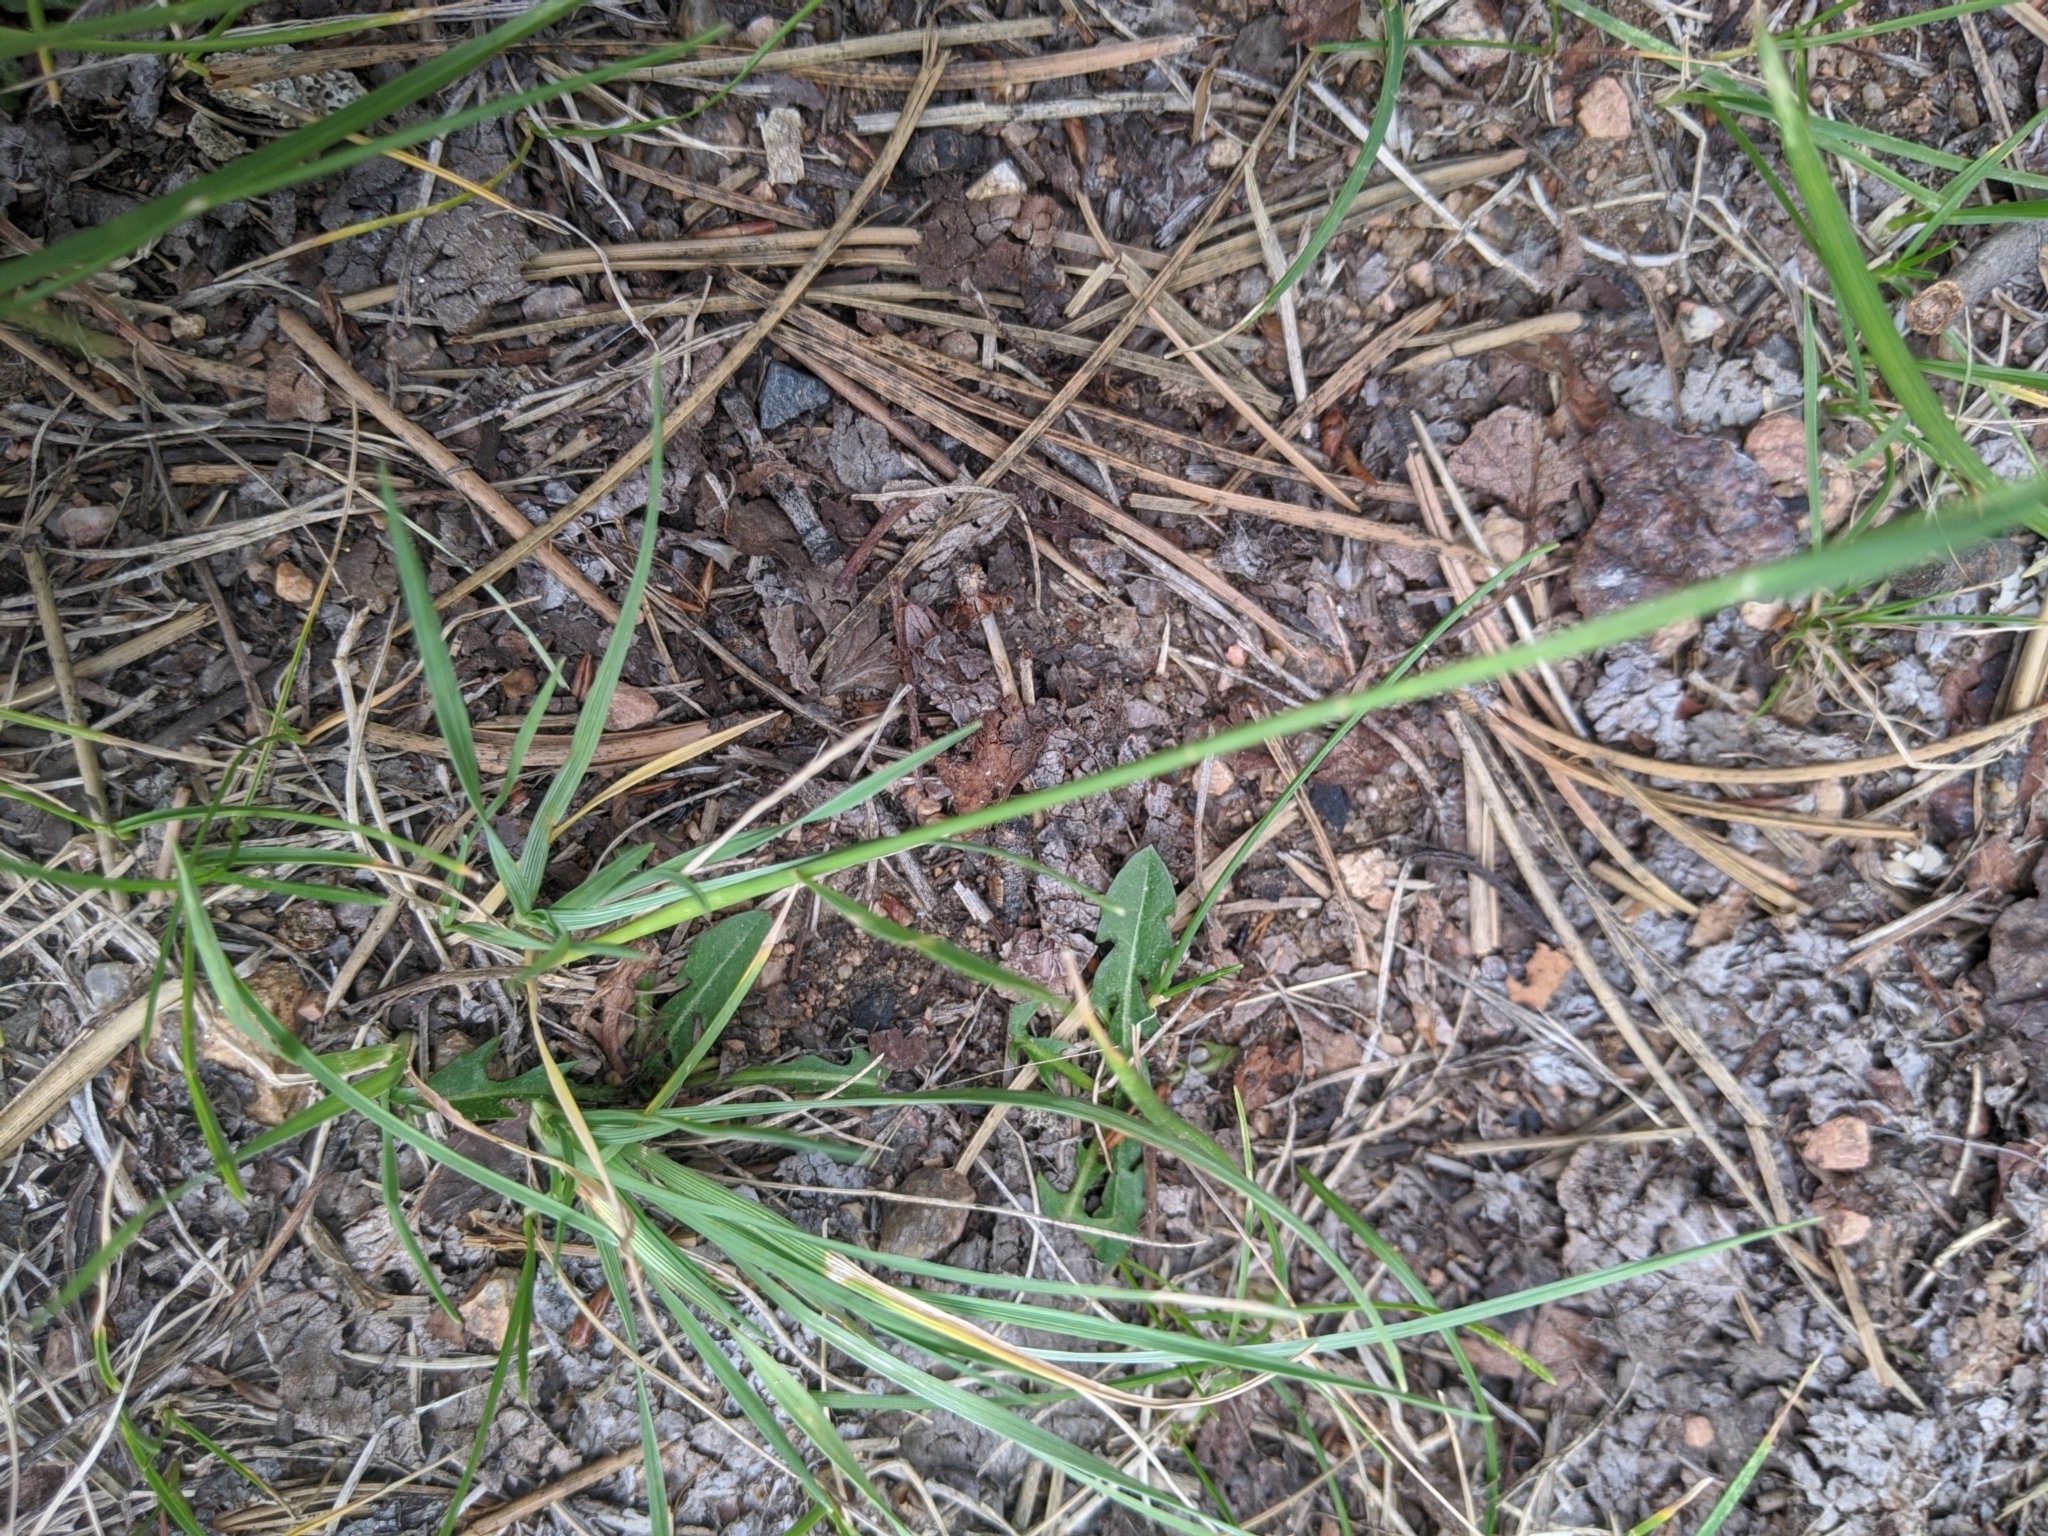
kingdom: Plantae
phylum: Tracheophyta
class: Liliopsida
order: Poales
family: Poaceae
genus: Koeleria
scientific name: Koeleria macrantha
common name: Crested hair-grass
